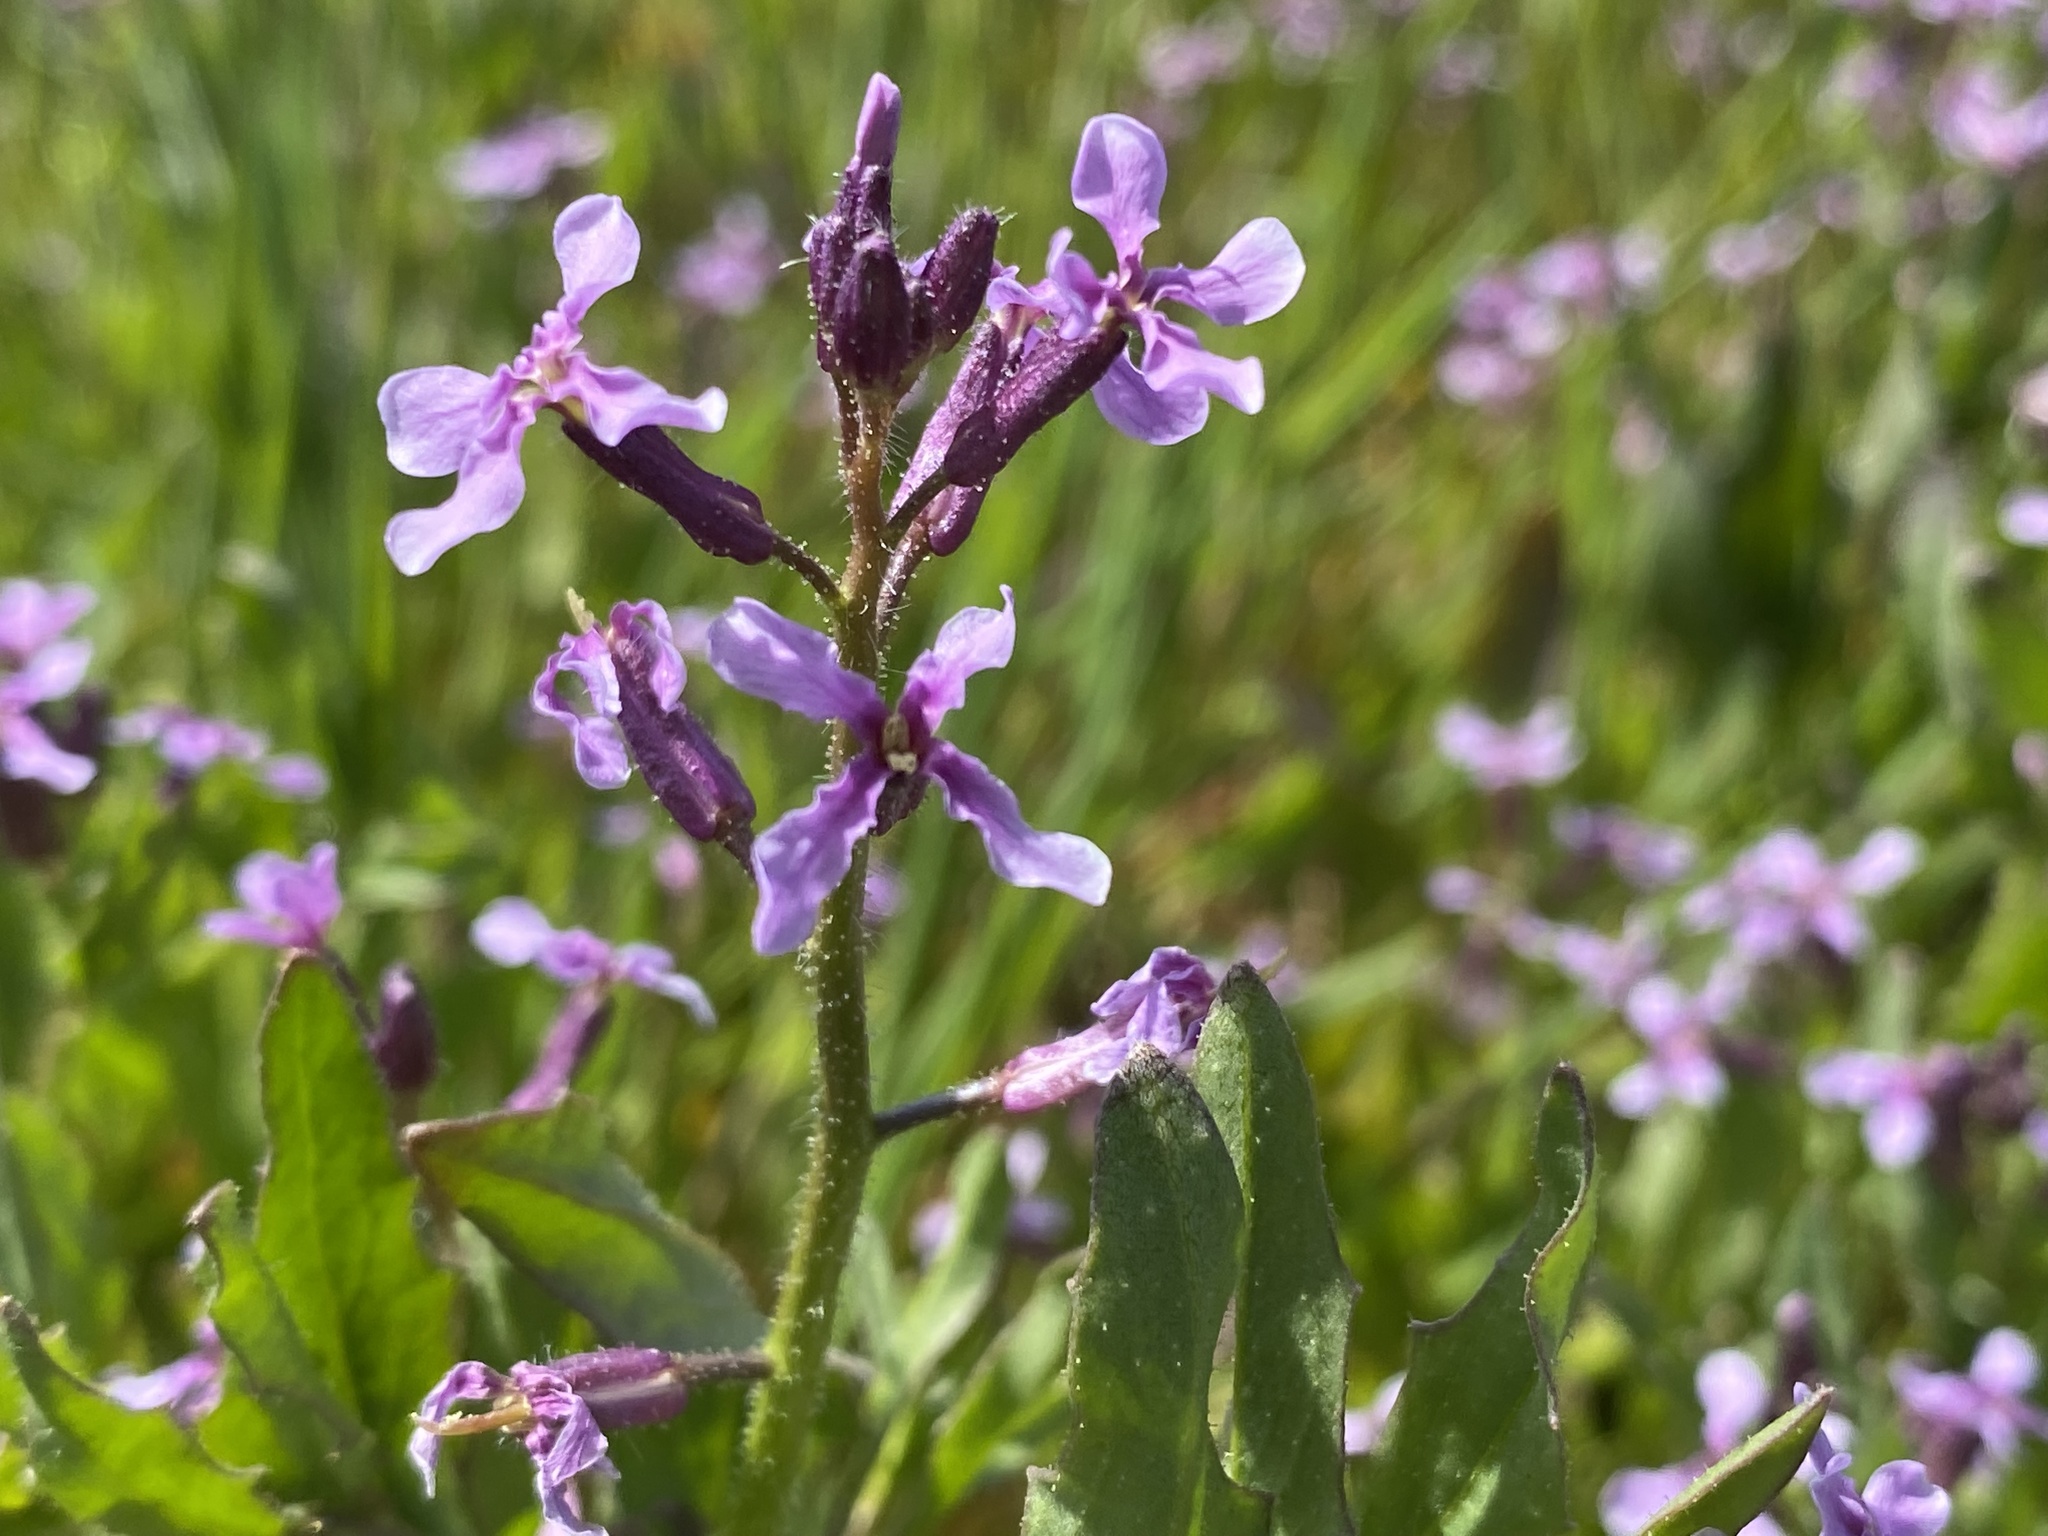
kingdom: Plantae
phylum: Tracheophyta
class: Magnoliopsida
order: Brassicales
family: Brassicaceae
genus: Chorispora
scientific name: Chorispora tenella
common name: Crossflower
